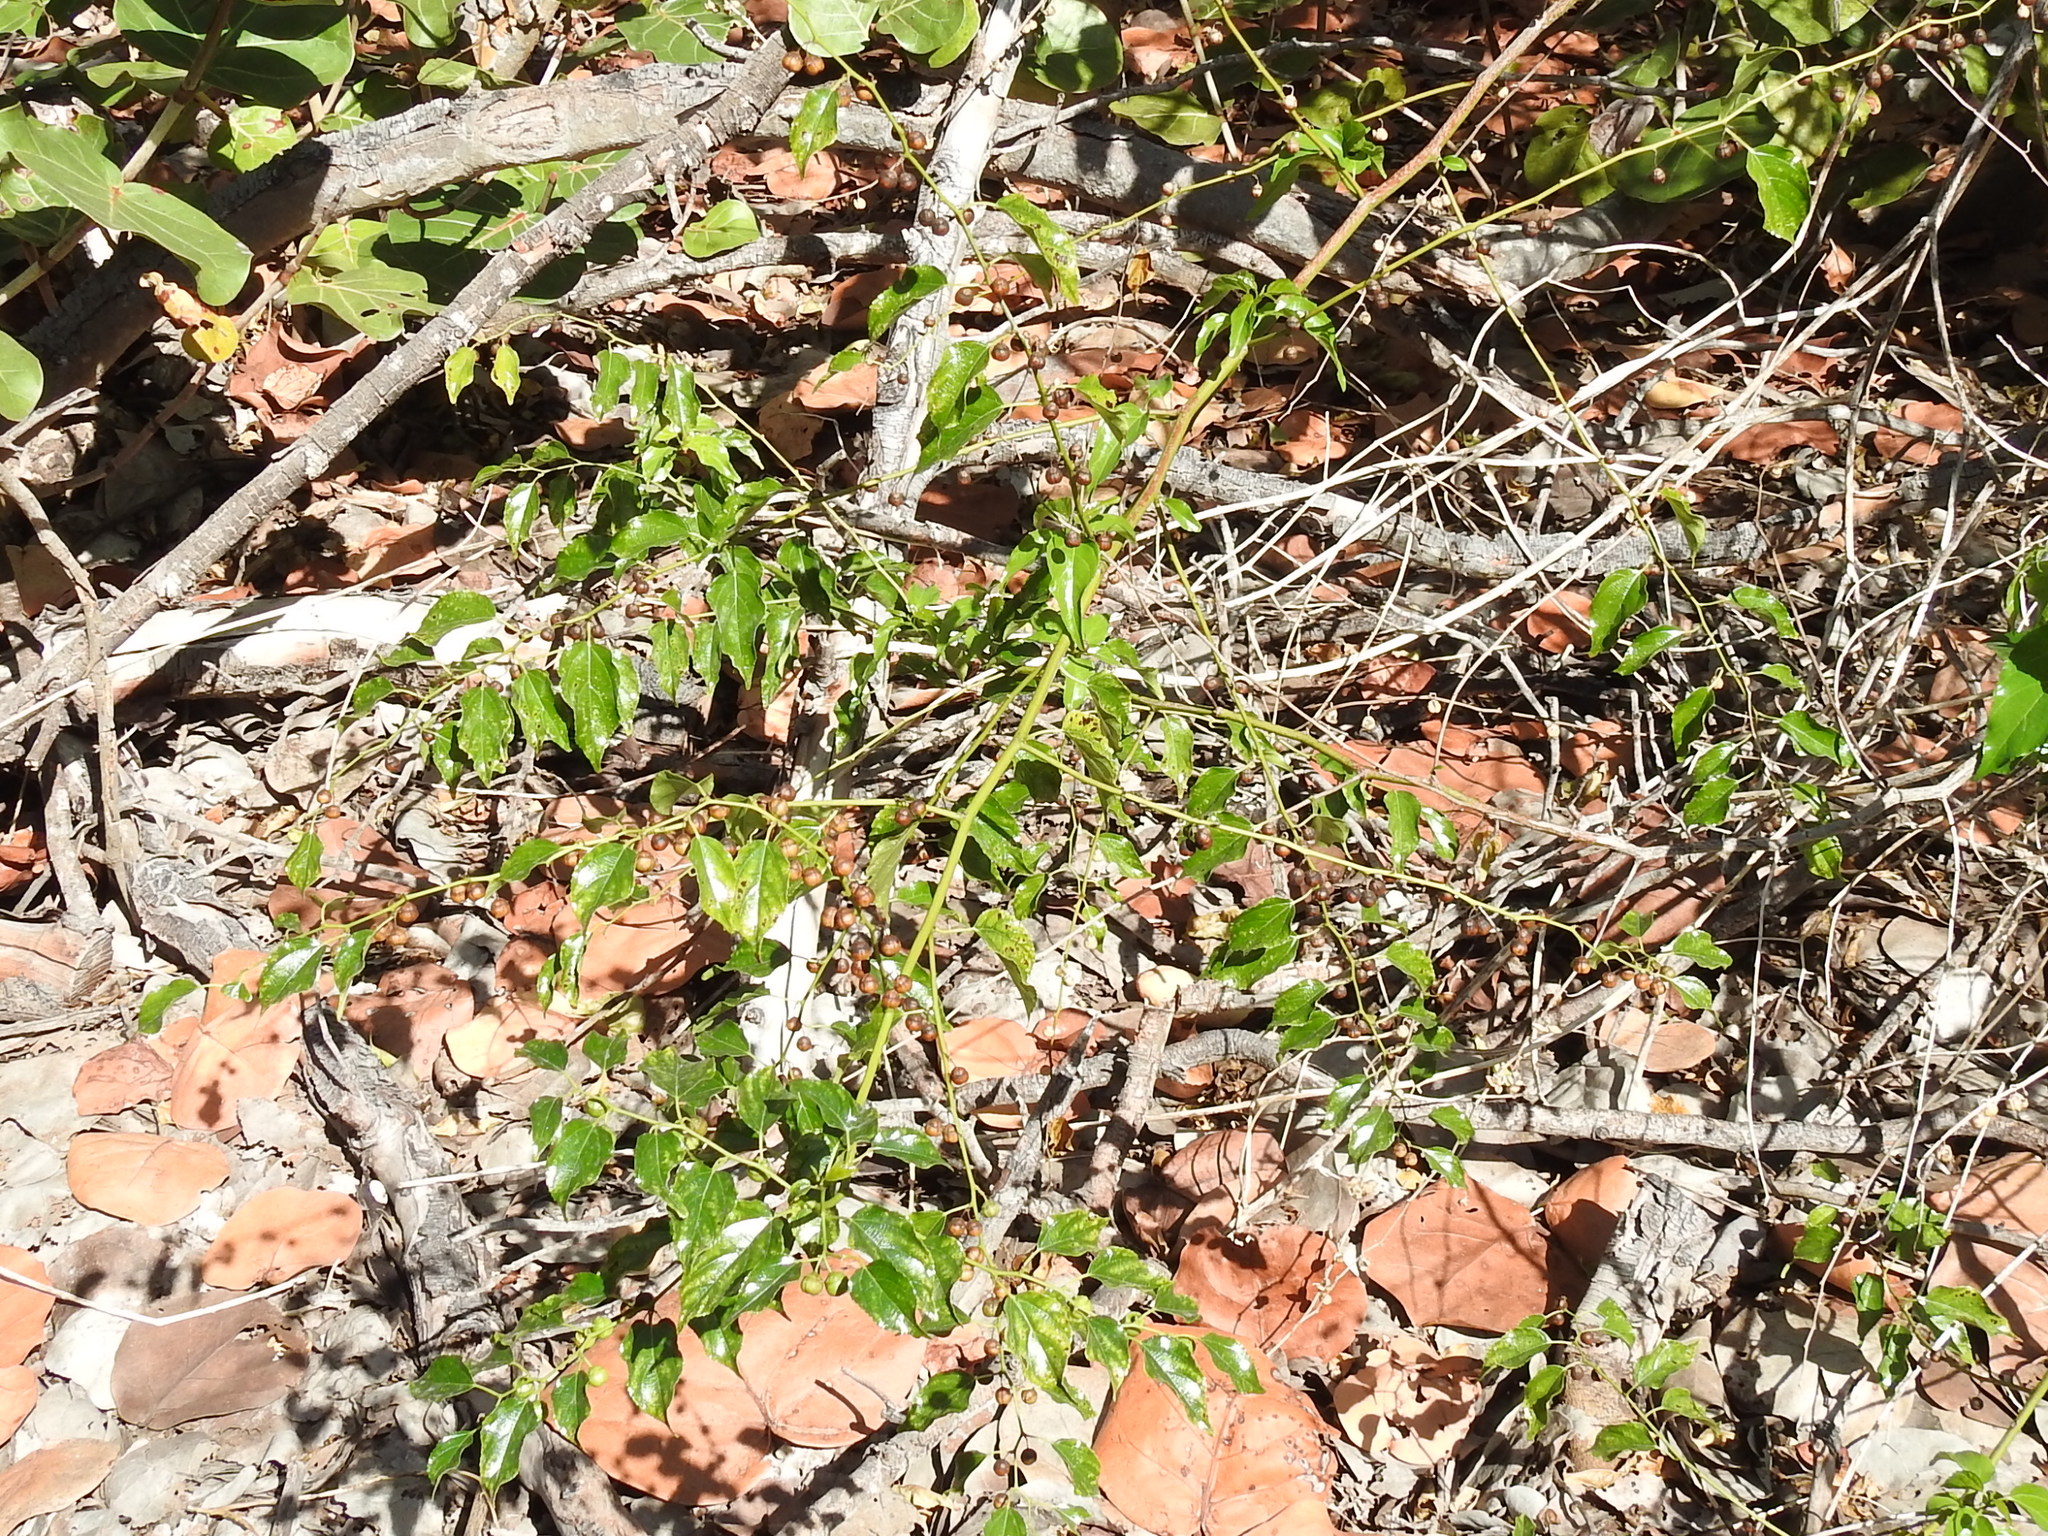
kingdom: Plantae
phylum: Tracheophyta
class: Magnoliopsida
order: Rosales
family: Rhamnaceae
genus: Colubrina
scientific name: Colubrina asiatica
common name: Asian nakedwood
